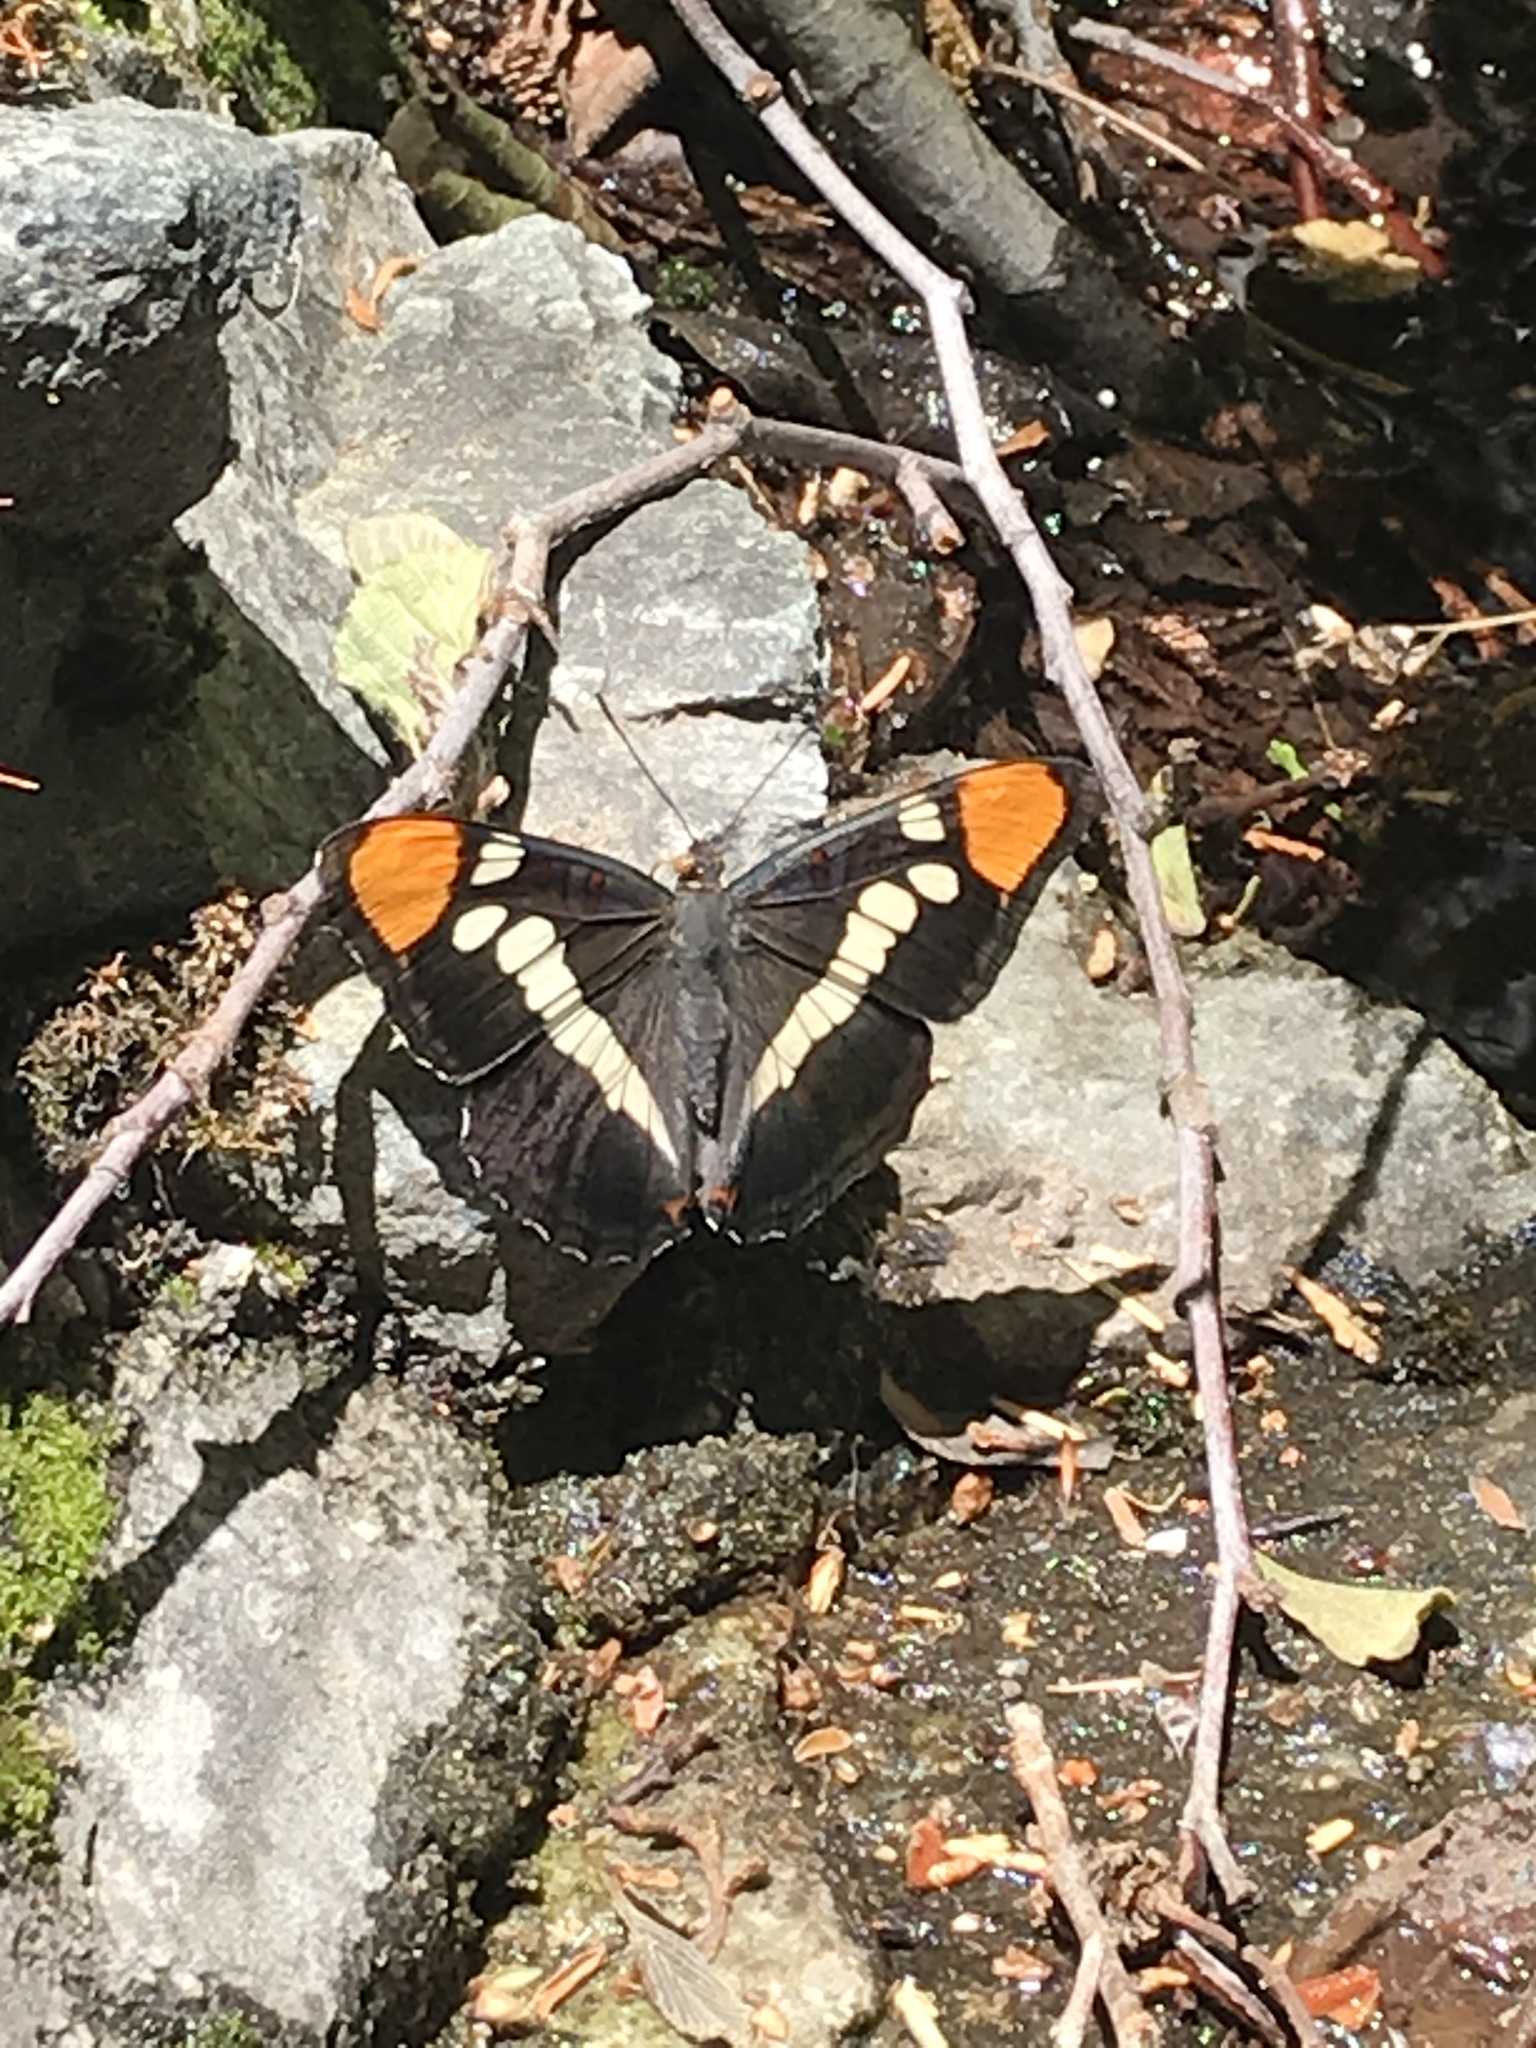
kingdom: Animalia
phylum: Arthropoda
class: Insecta
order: Lepidoptera
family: Nymphalidae
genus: Limenitis
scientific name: Limenitis bredowii
